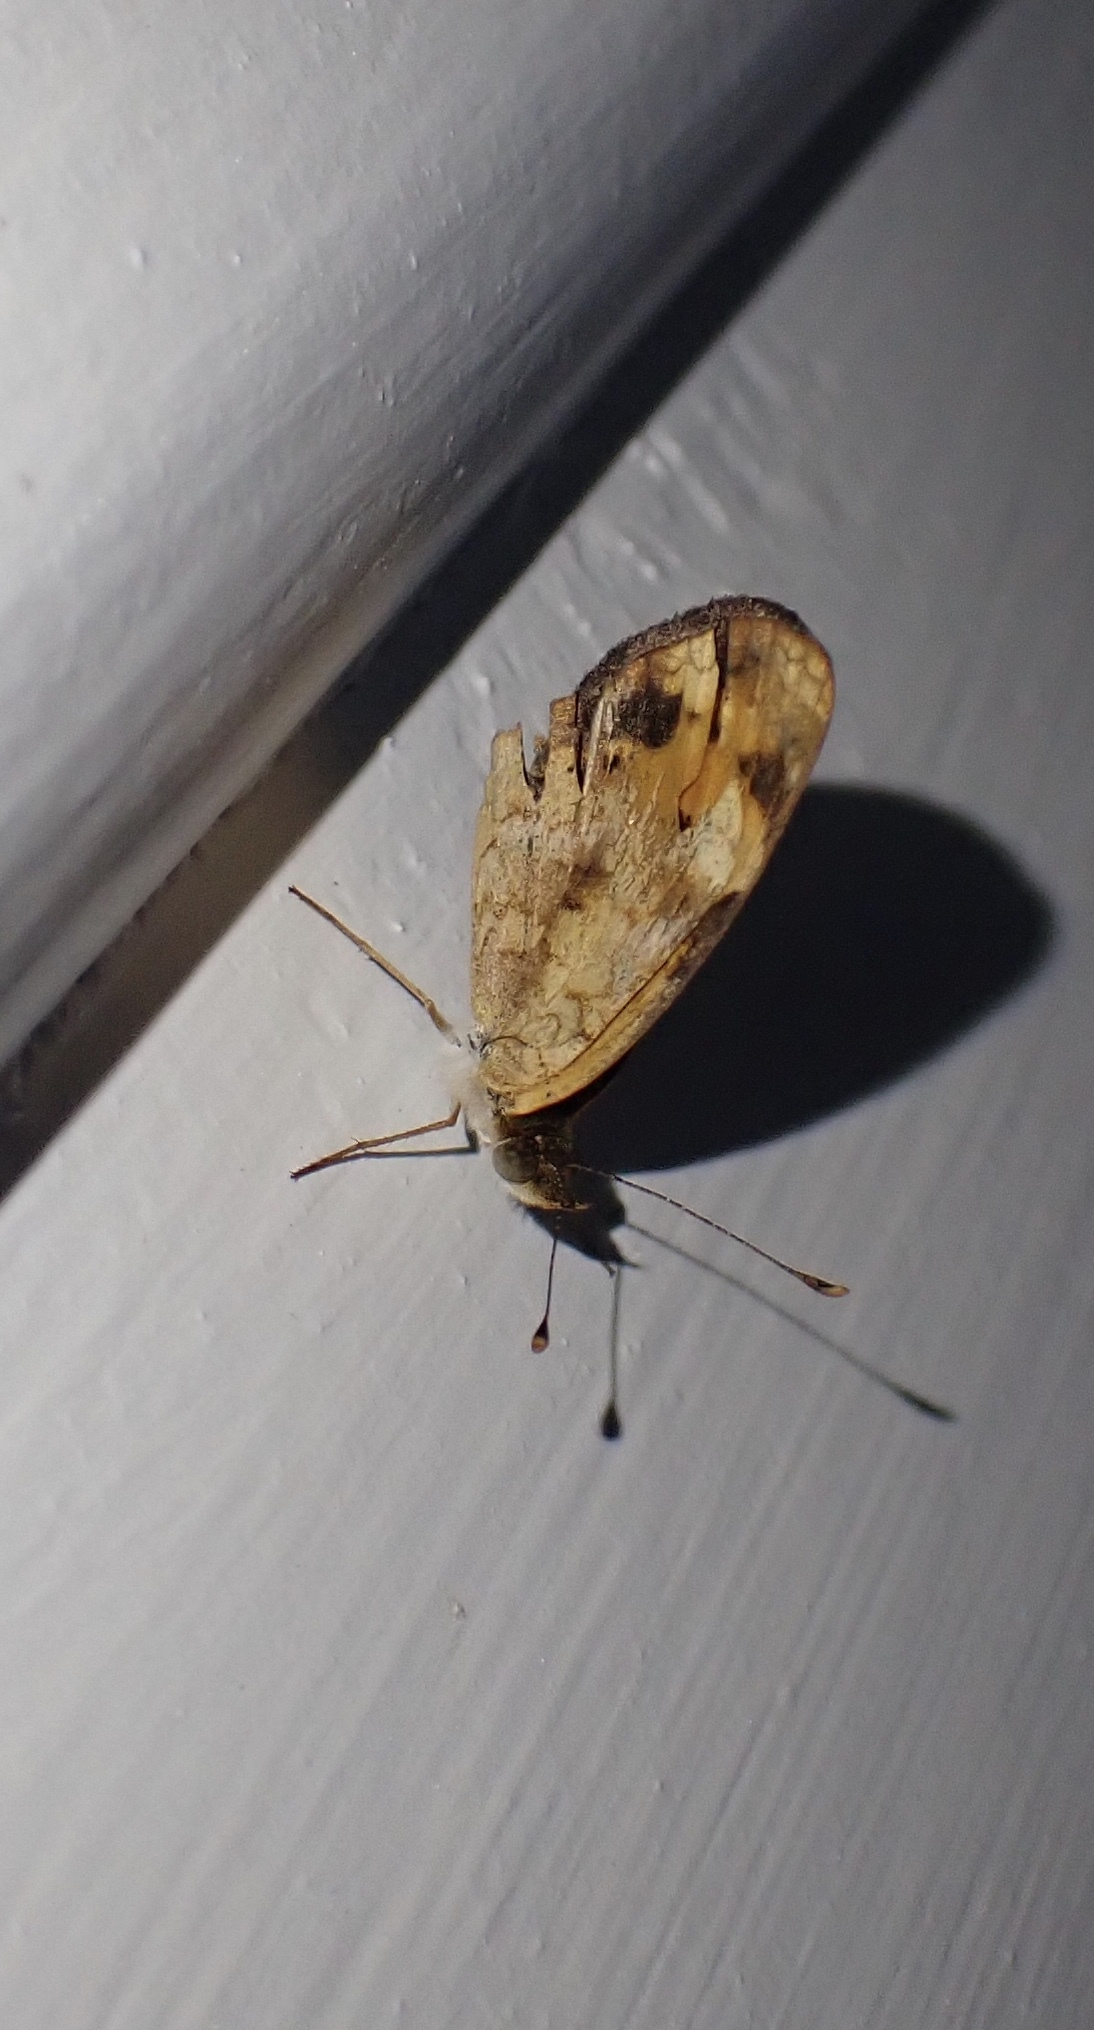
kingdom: Animalia
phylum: Arthropoda
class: Insecta
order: Lepidoptera
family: Nymphalidae
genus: Phyciodes
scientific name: Phyciodes tharos
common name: Pearl crescent
